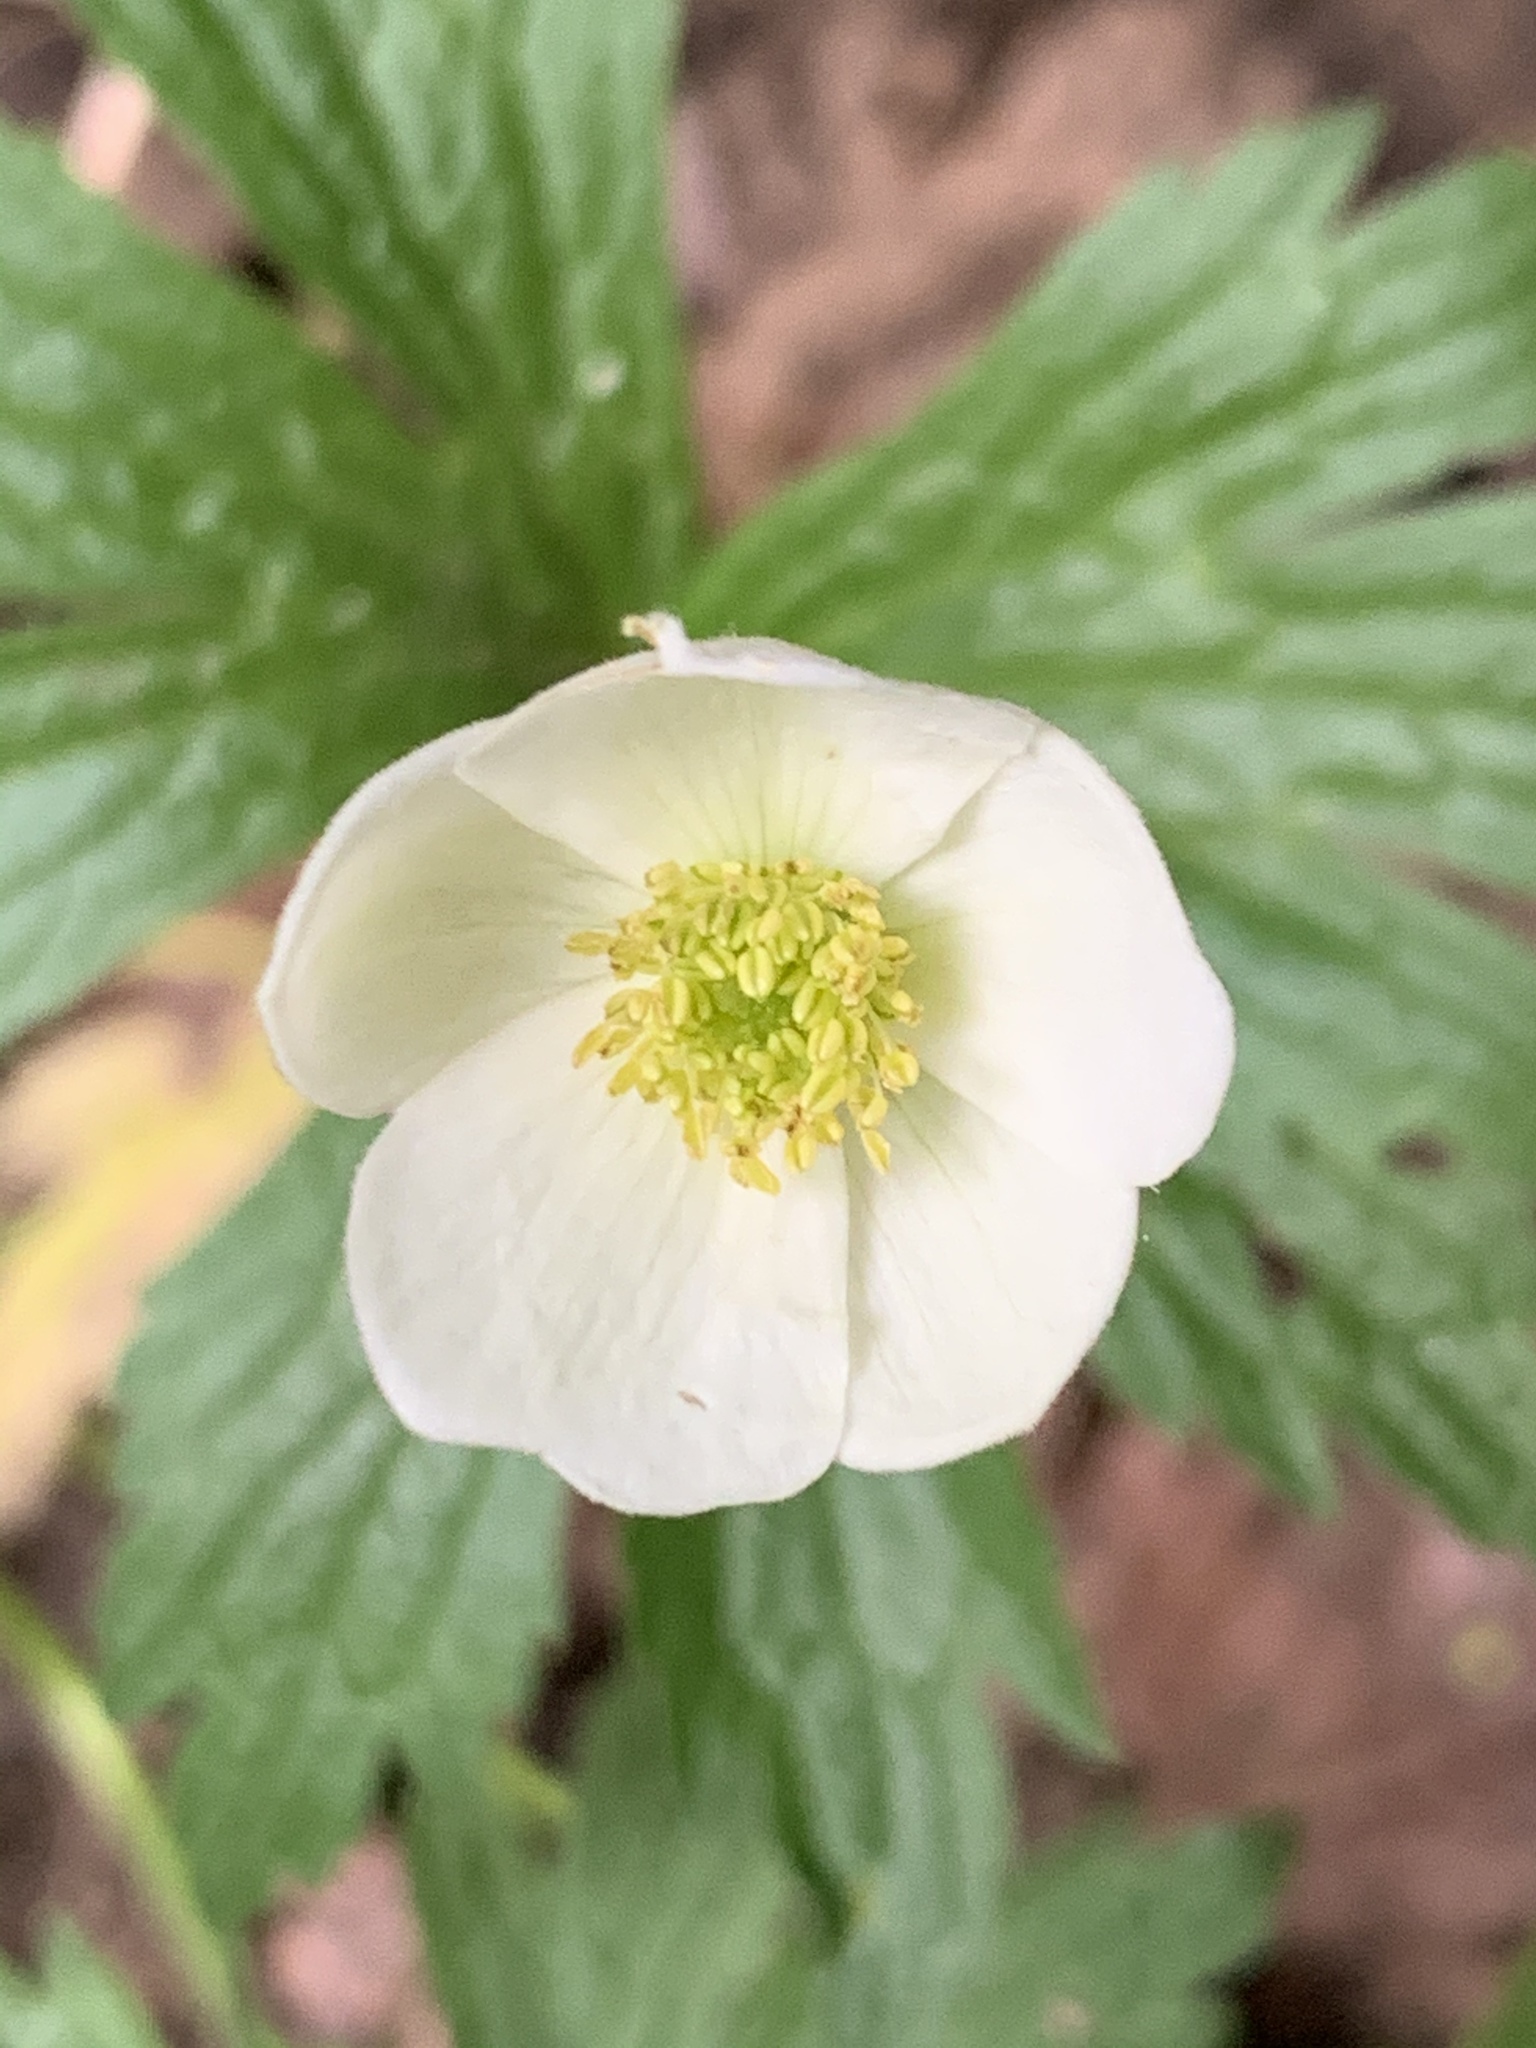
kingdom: Plantae
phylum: Tracheophyta
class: Magnoliopsida
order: Ranunculales
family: Ranunculaceae
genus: Anemonastrum
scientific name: Anemonastrum canadense
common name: Canada anemone
